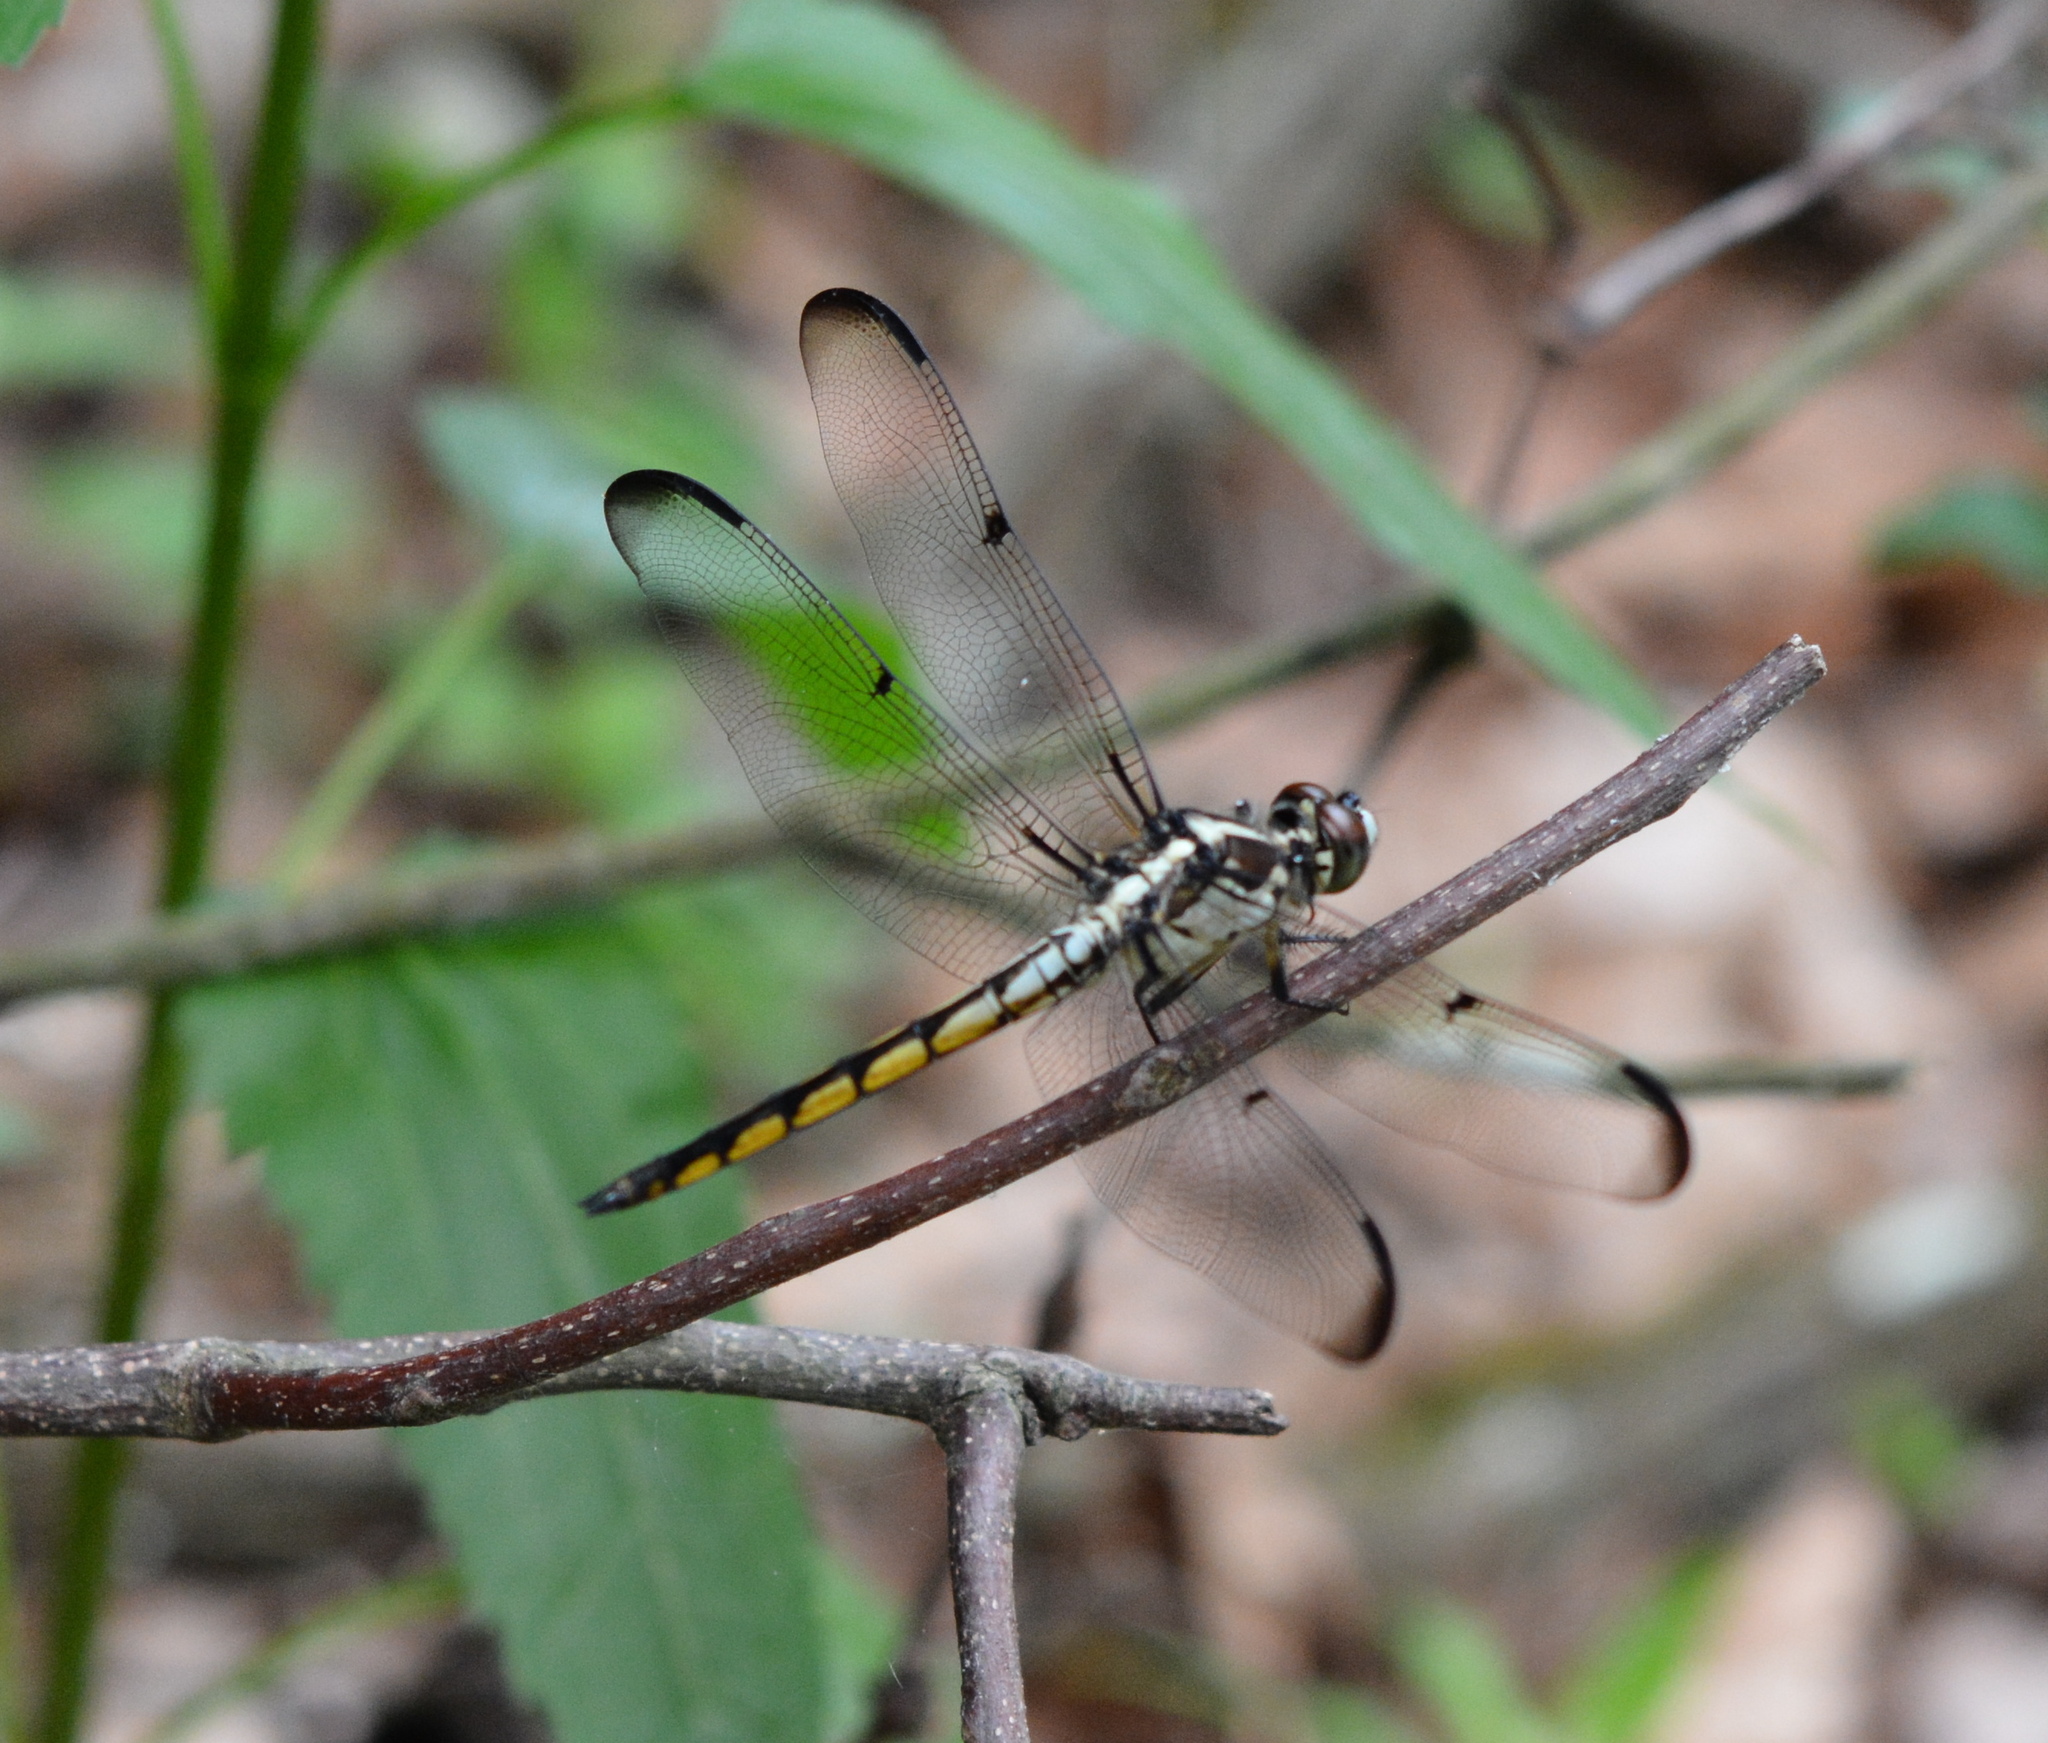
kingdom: Animalia
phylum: Arthropoda
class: Insecta
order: Odonata
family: Libellulidae
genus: Libellula
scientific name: Libellula vibrans
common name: Great blue skimmer
